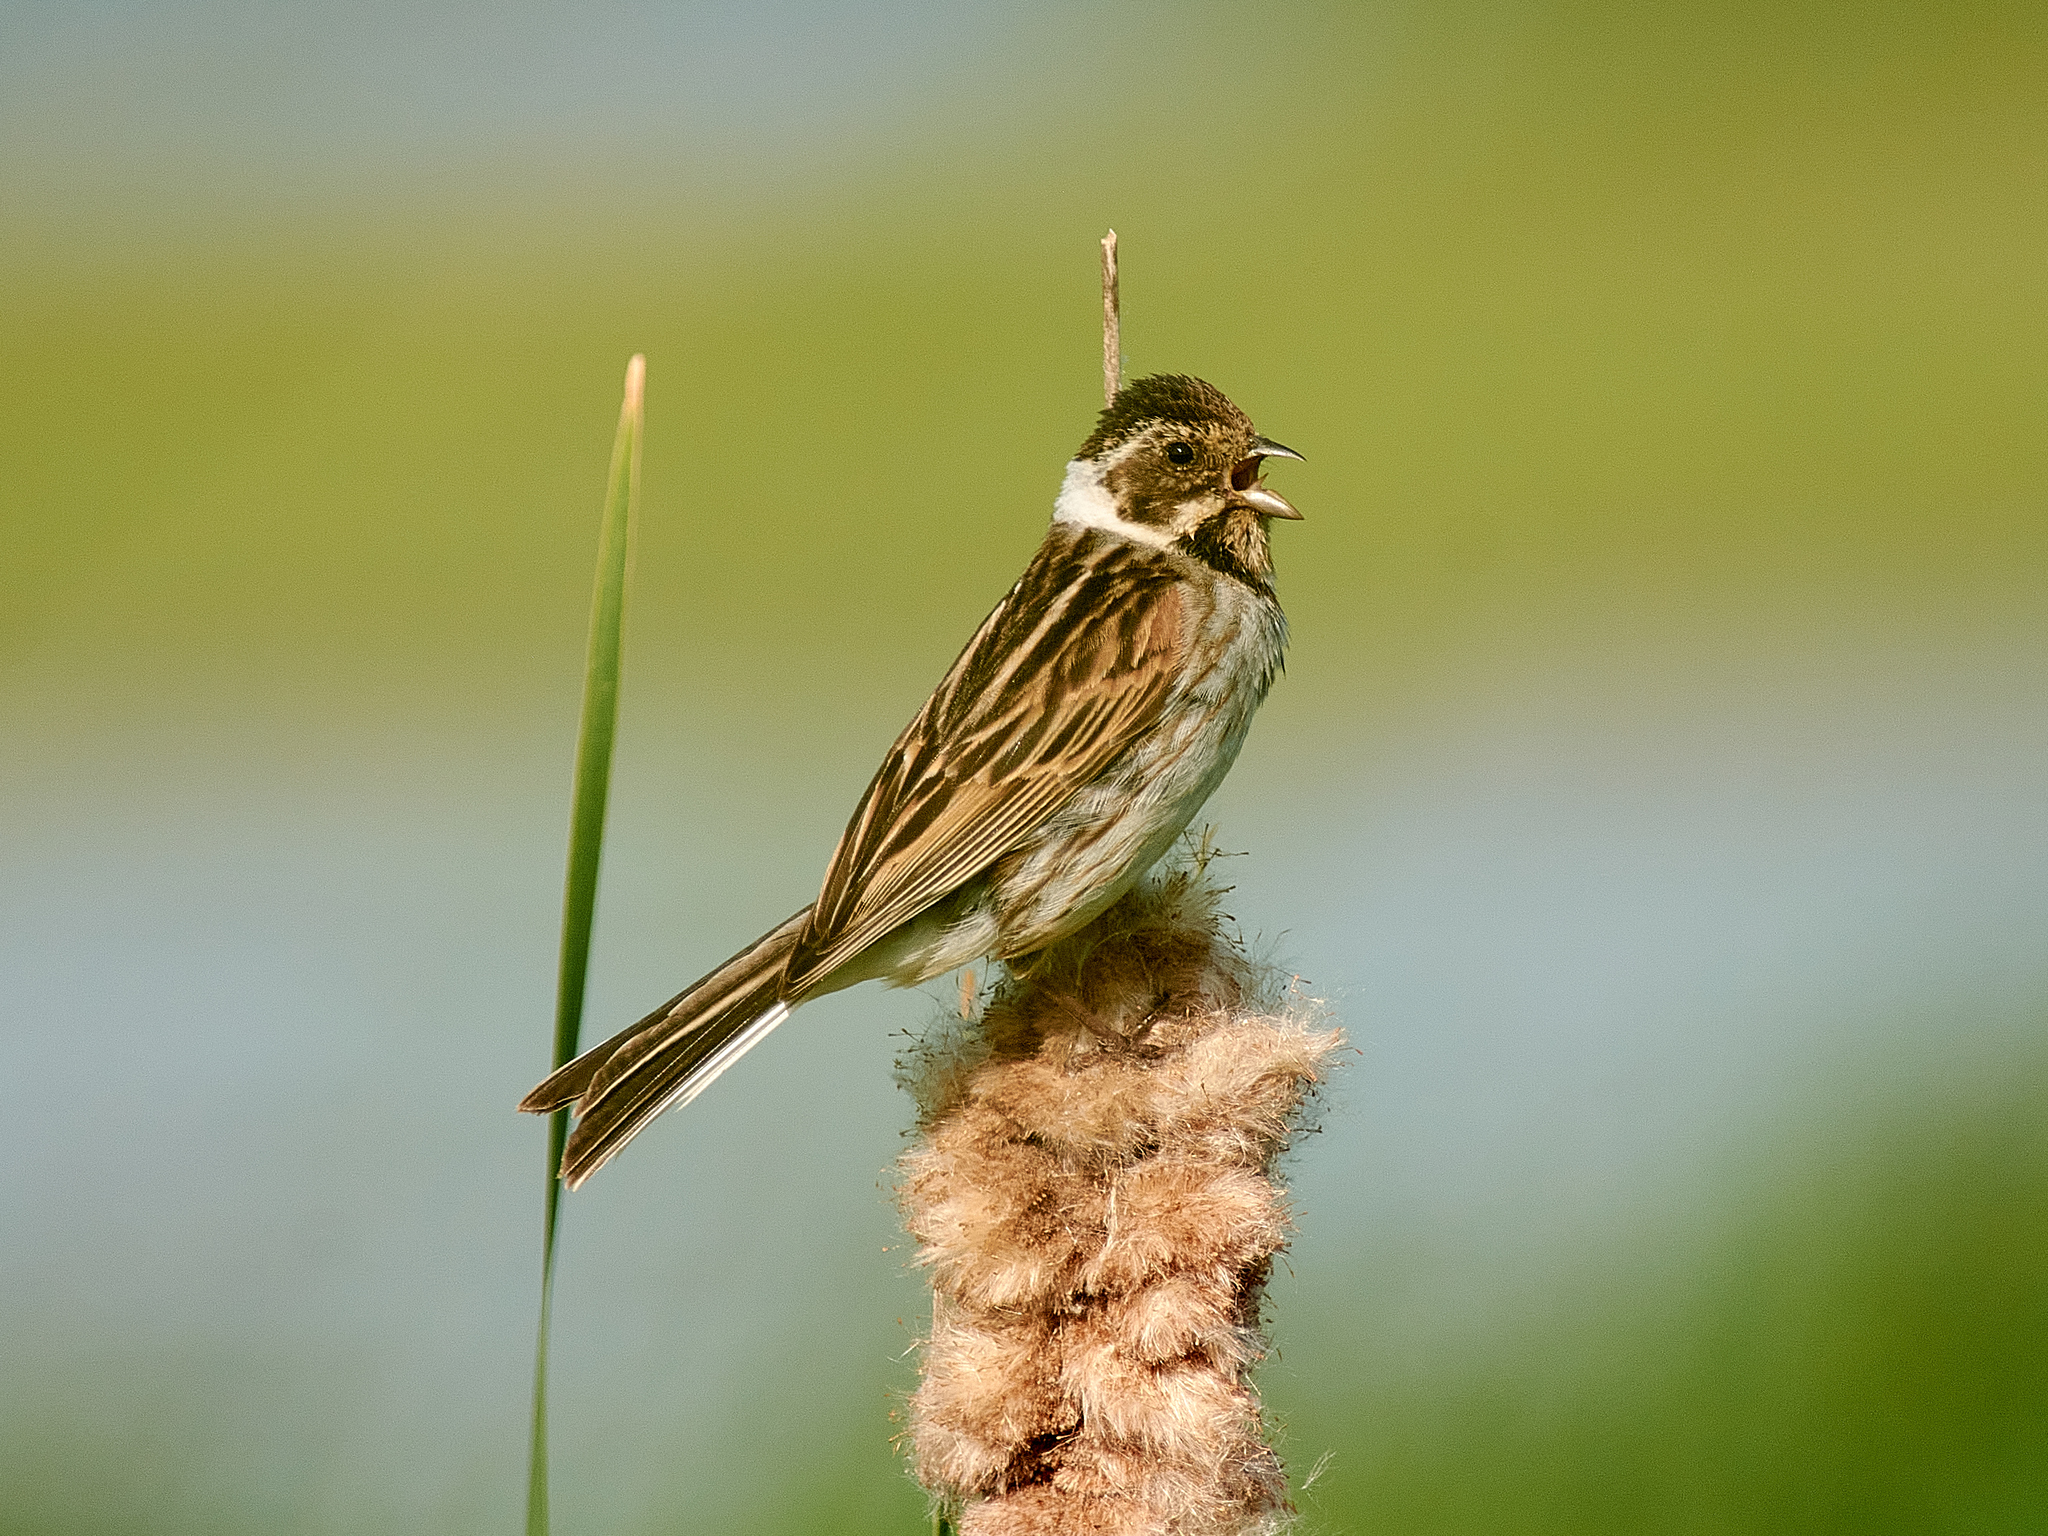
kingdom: Animalia
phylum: Chordata
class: Aves
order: Passeriformes
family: Emberizidae
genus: Emberiza
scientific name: Emberiza schoeniclus
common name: Reed bunting
